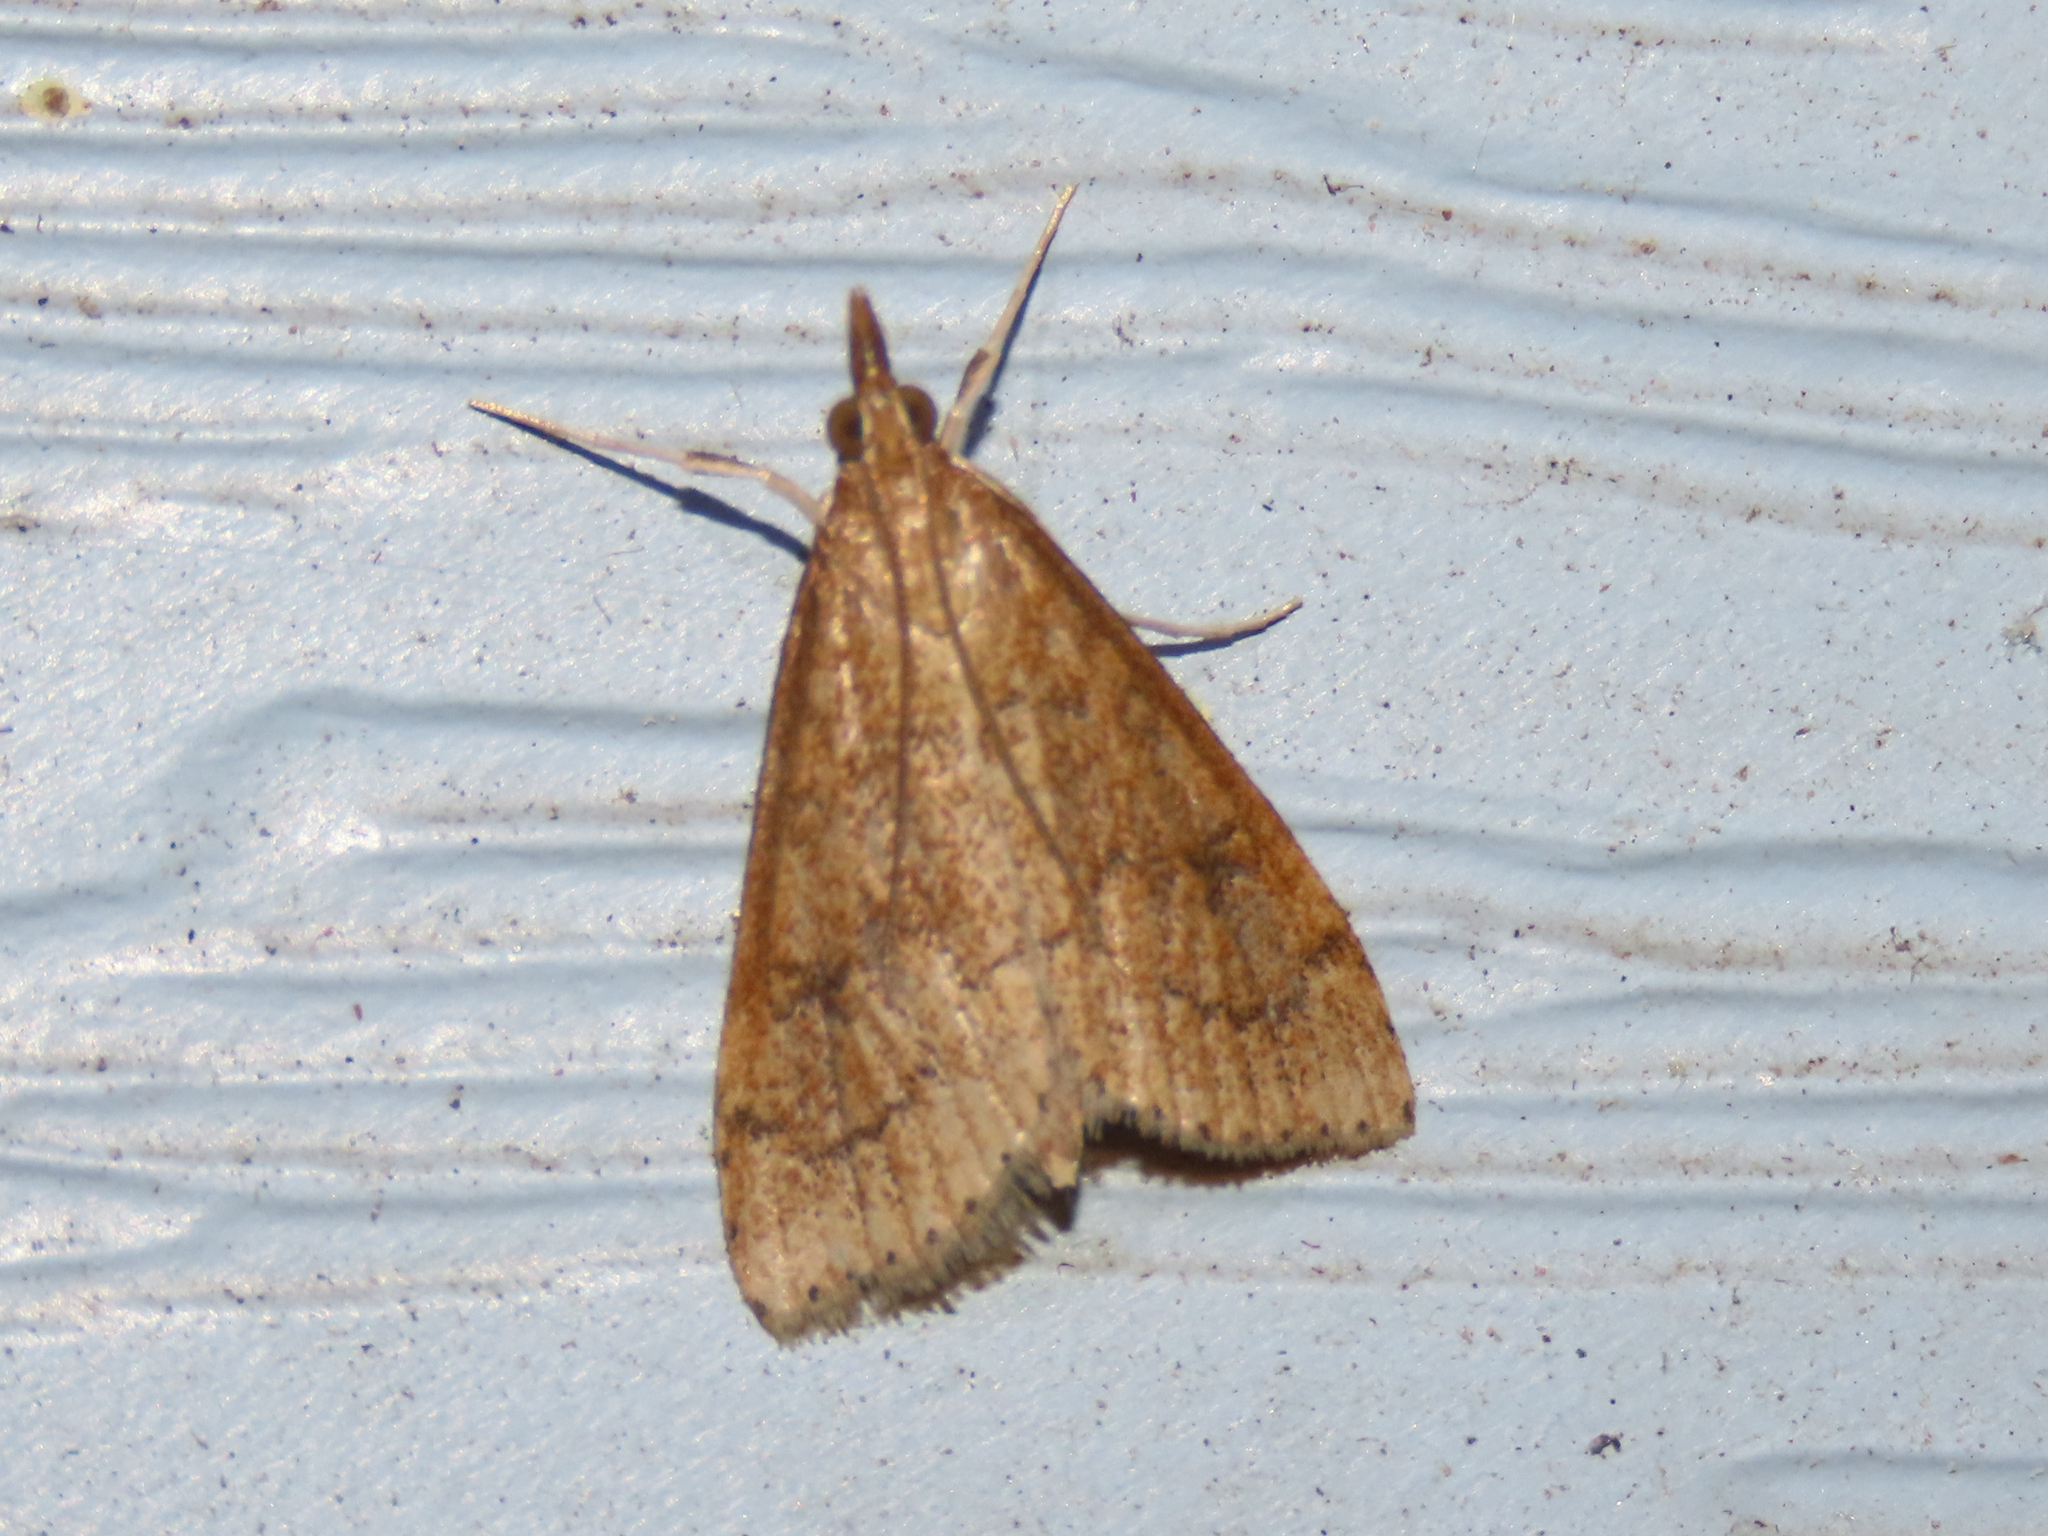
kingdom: Animalia
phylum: Arthropoda
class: Insecta
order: Lepidoptera
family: Crambidae
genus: Udea
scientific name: Udea rubigalis
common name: Celery leaftier moth
